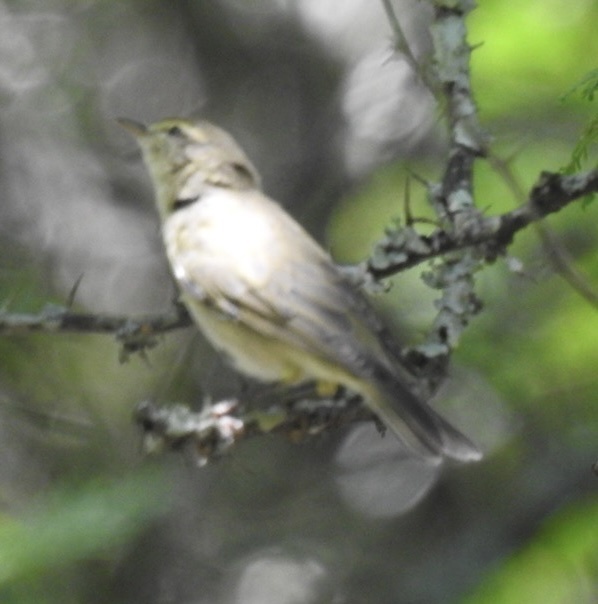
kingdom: Animalia
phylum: Chordata
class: Aves
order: Passeriformes
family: Phylloscopidae
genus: Phylloscopus
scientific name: Phylloscopus trochilus
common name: Willow warbler
